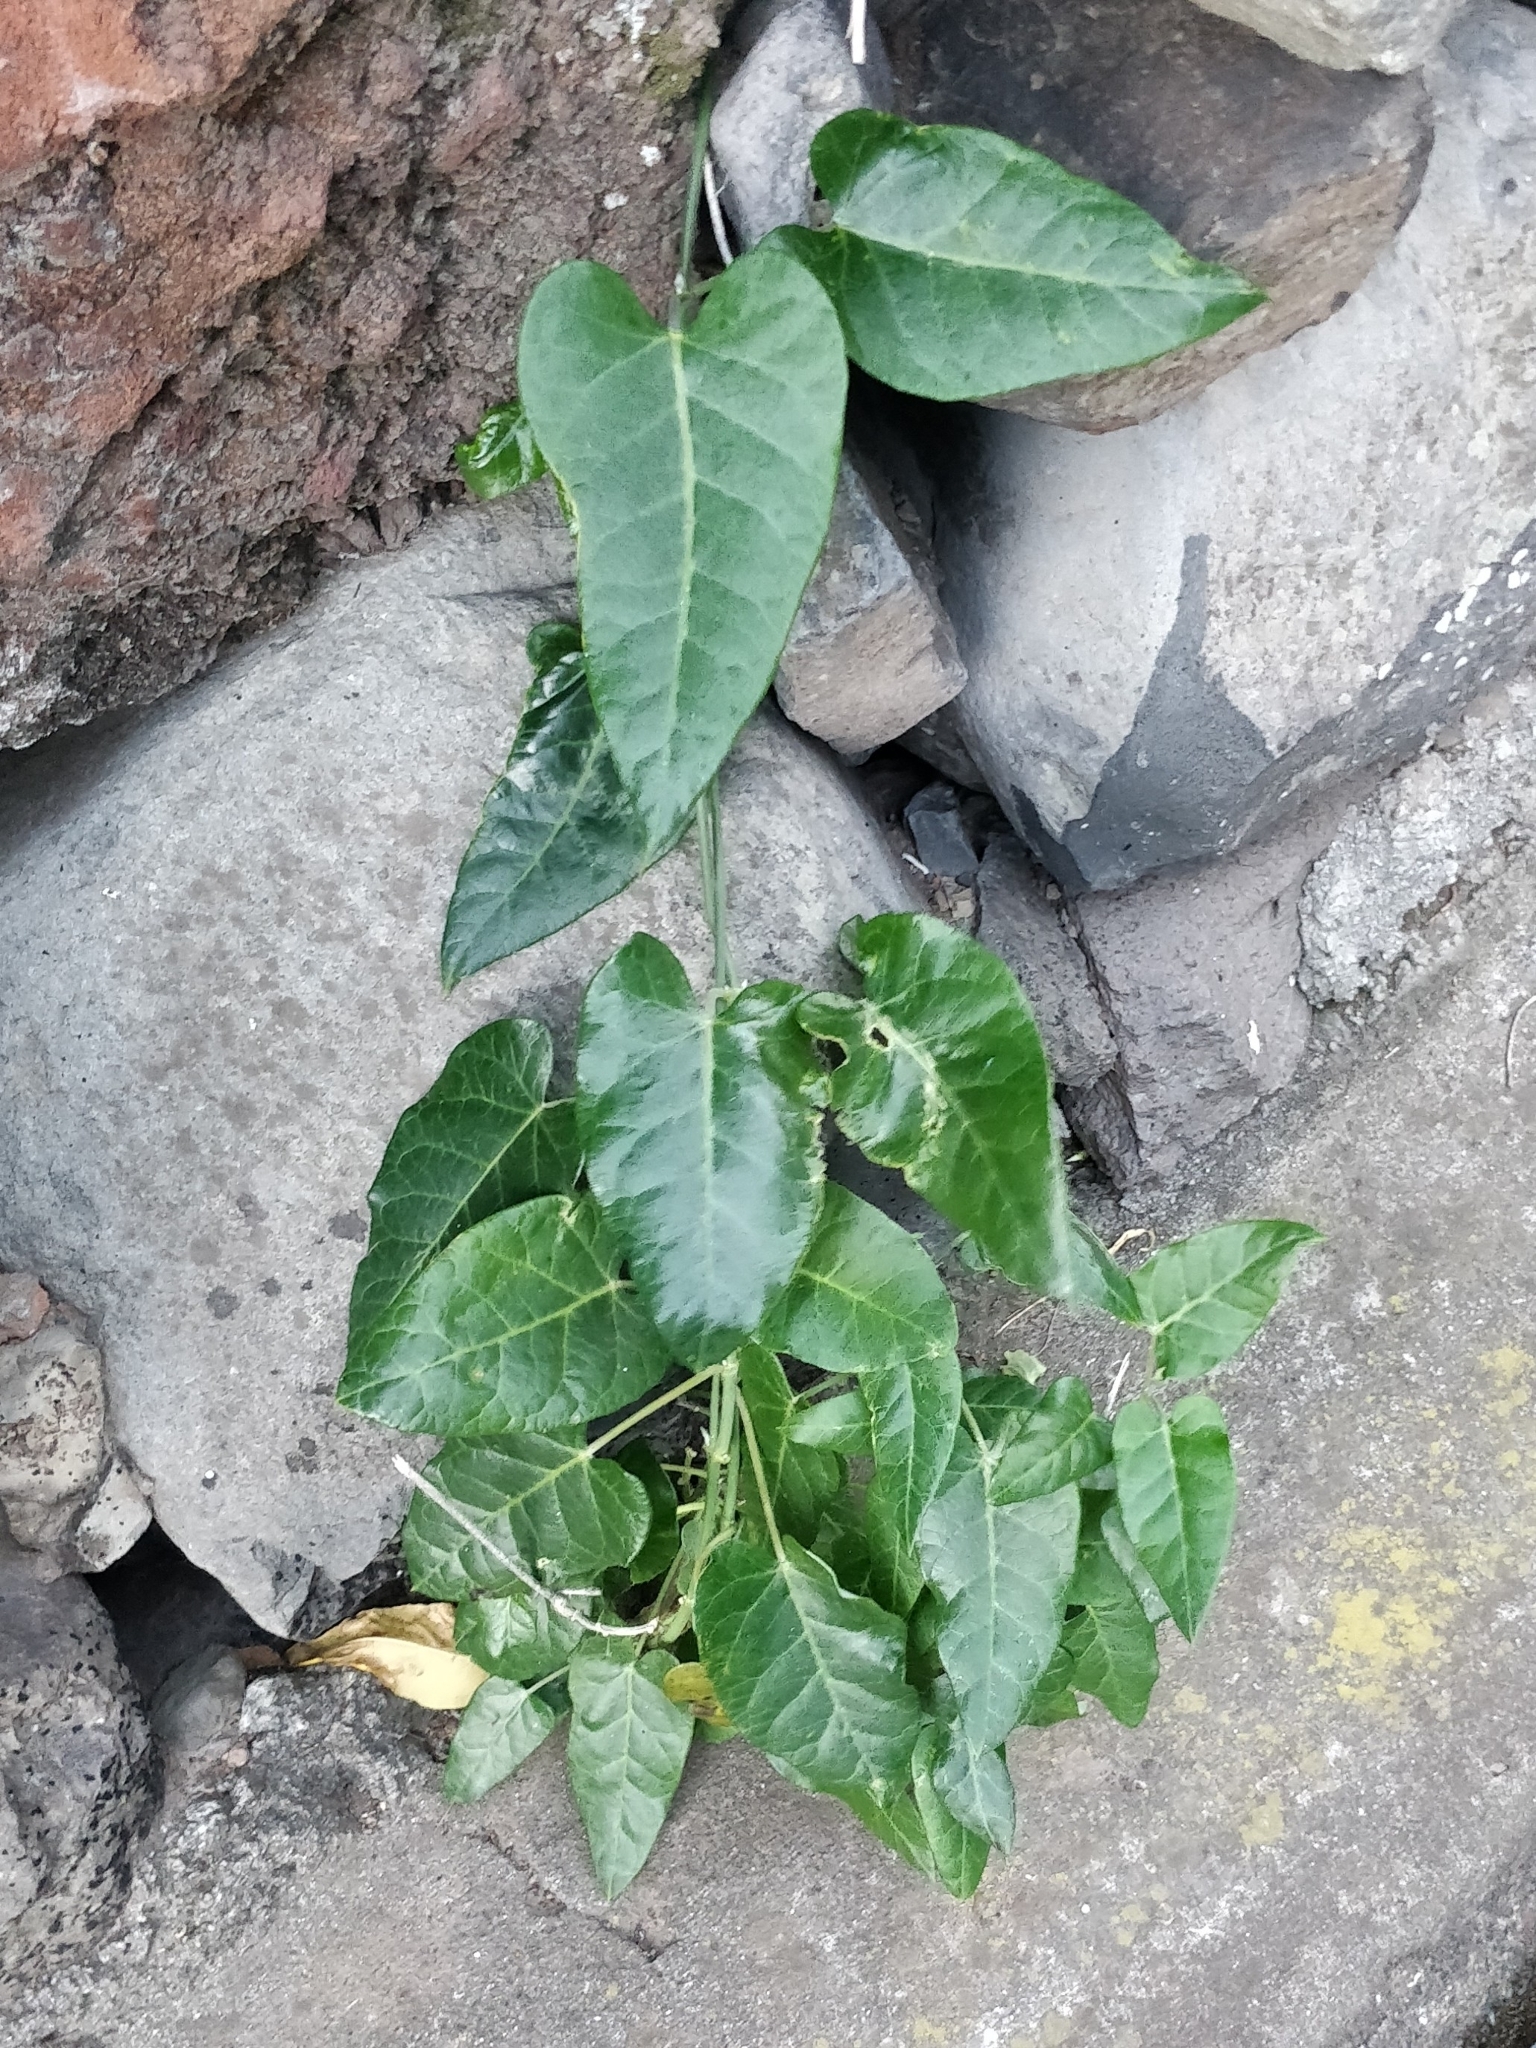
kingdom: Plantae
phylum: Tracheophyta
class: Magnoliopsida
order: Gentianales
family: Apocynaceae
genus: Araujia
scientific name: Araujia sericifera
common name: White bladderflower
